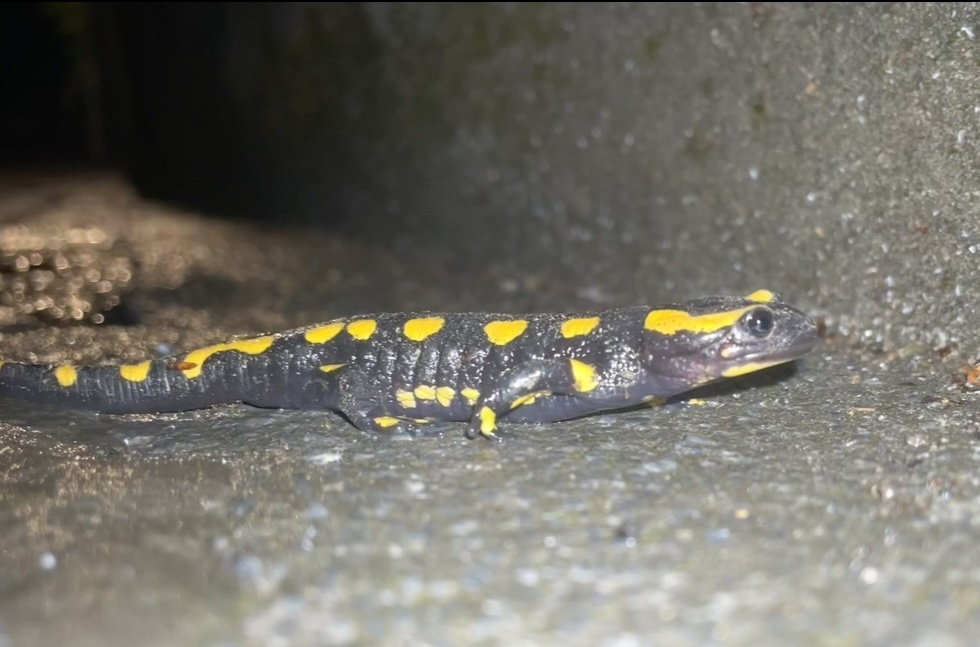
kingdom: Animalia
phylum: Chordata
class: Amphibia
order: Caudata
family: Salamandridae
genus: Salamandra
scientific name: Salamandra salamandra
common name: Fire salamander
